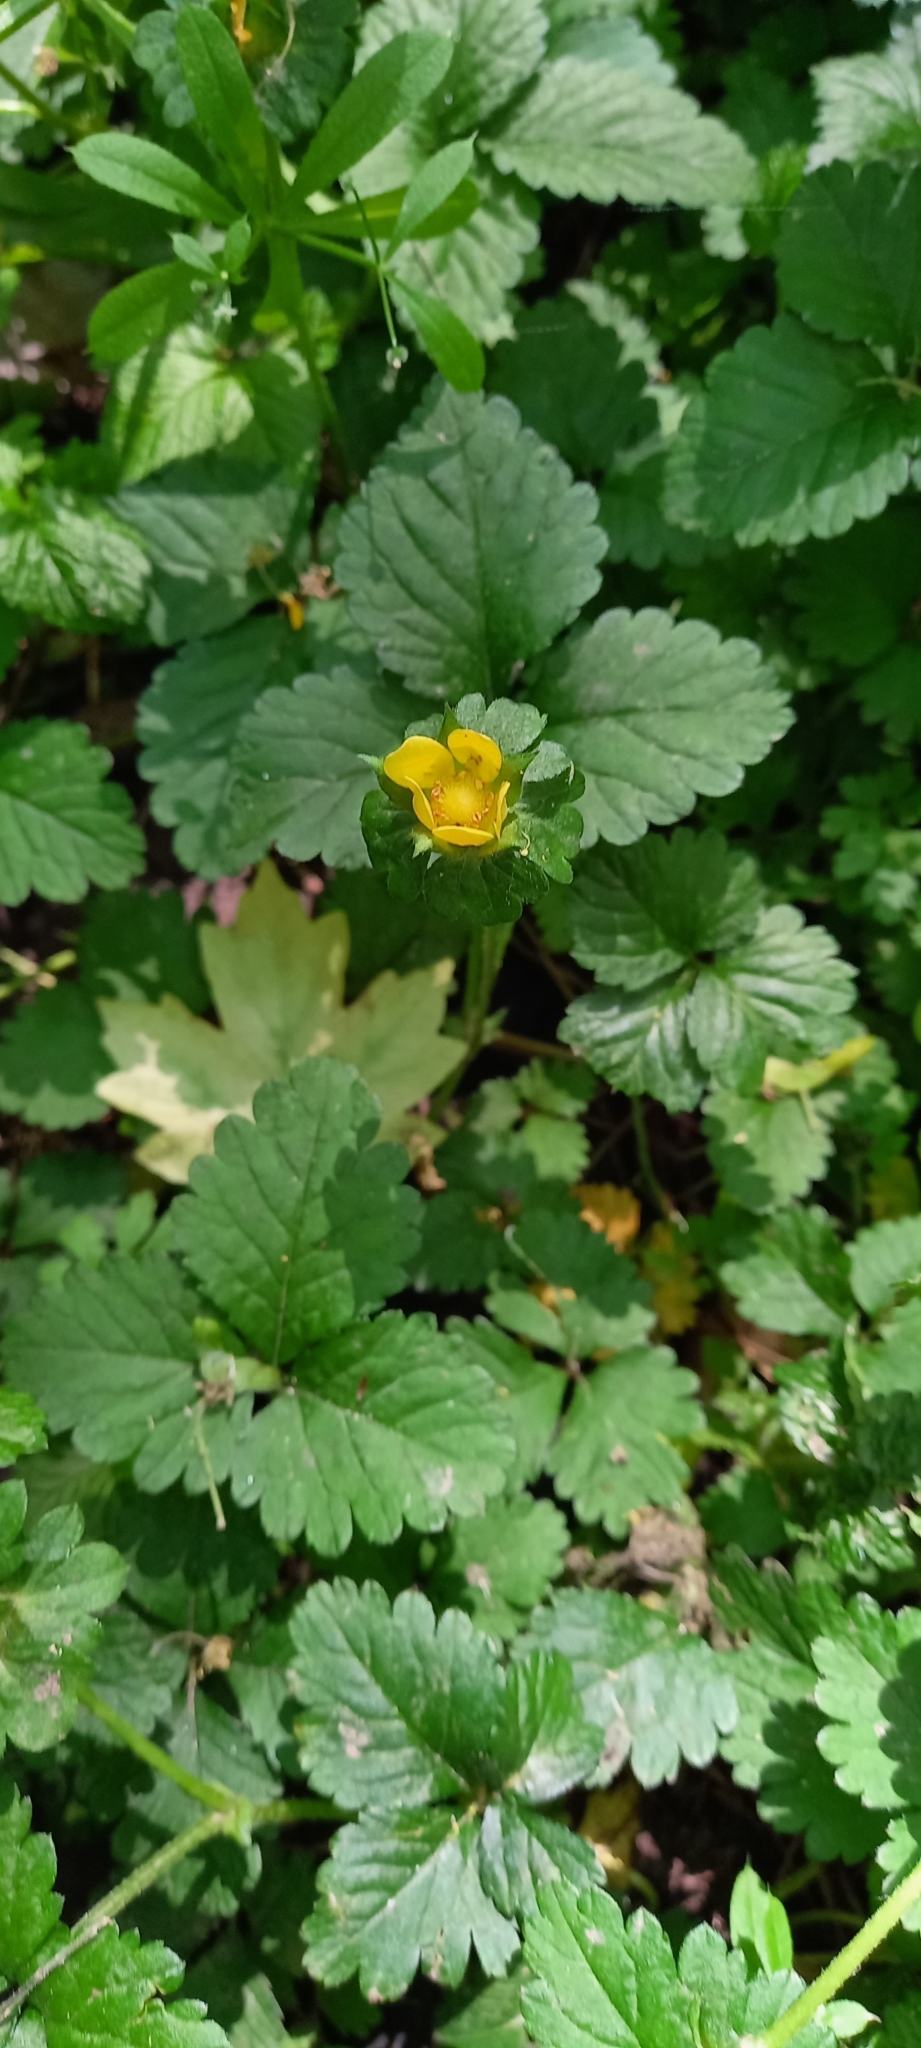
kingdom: Plantae
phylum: Tracheophyta
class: Magnoliopsida
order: Rosales
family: Rosaceae
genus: Potentilla
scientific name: Potentilla indica
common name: Yellow-flowered strawberry
